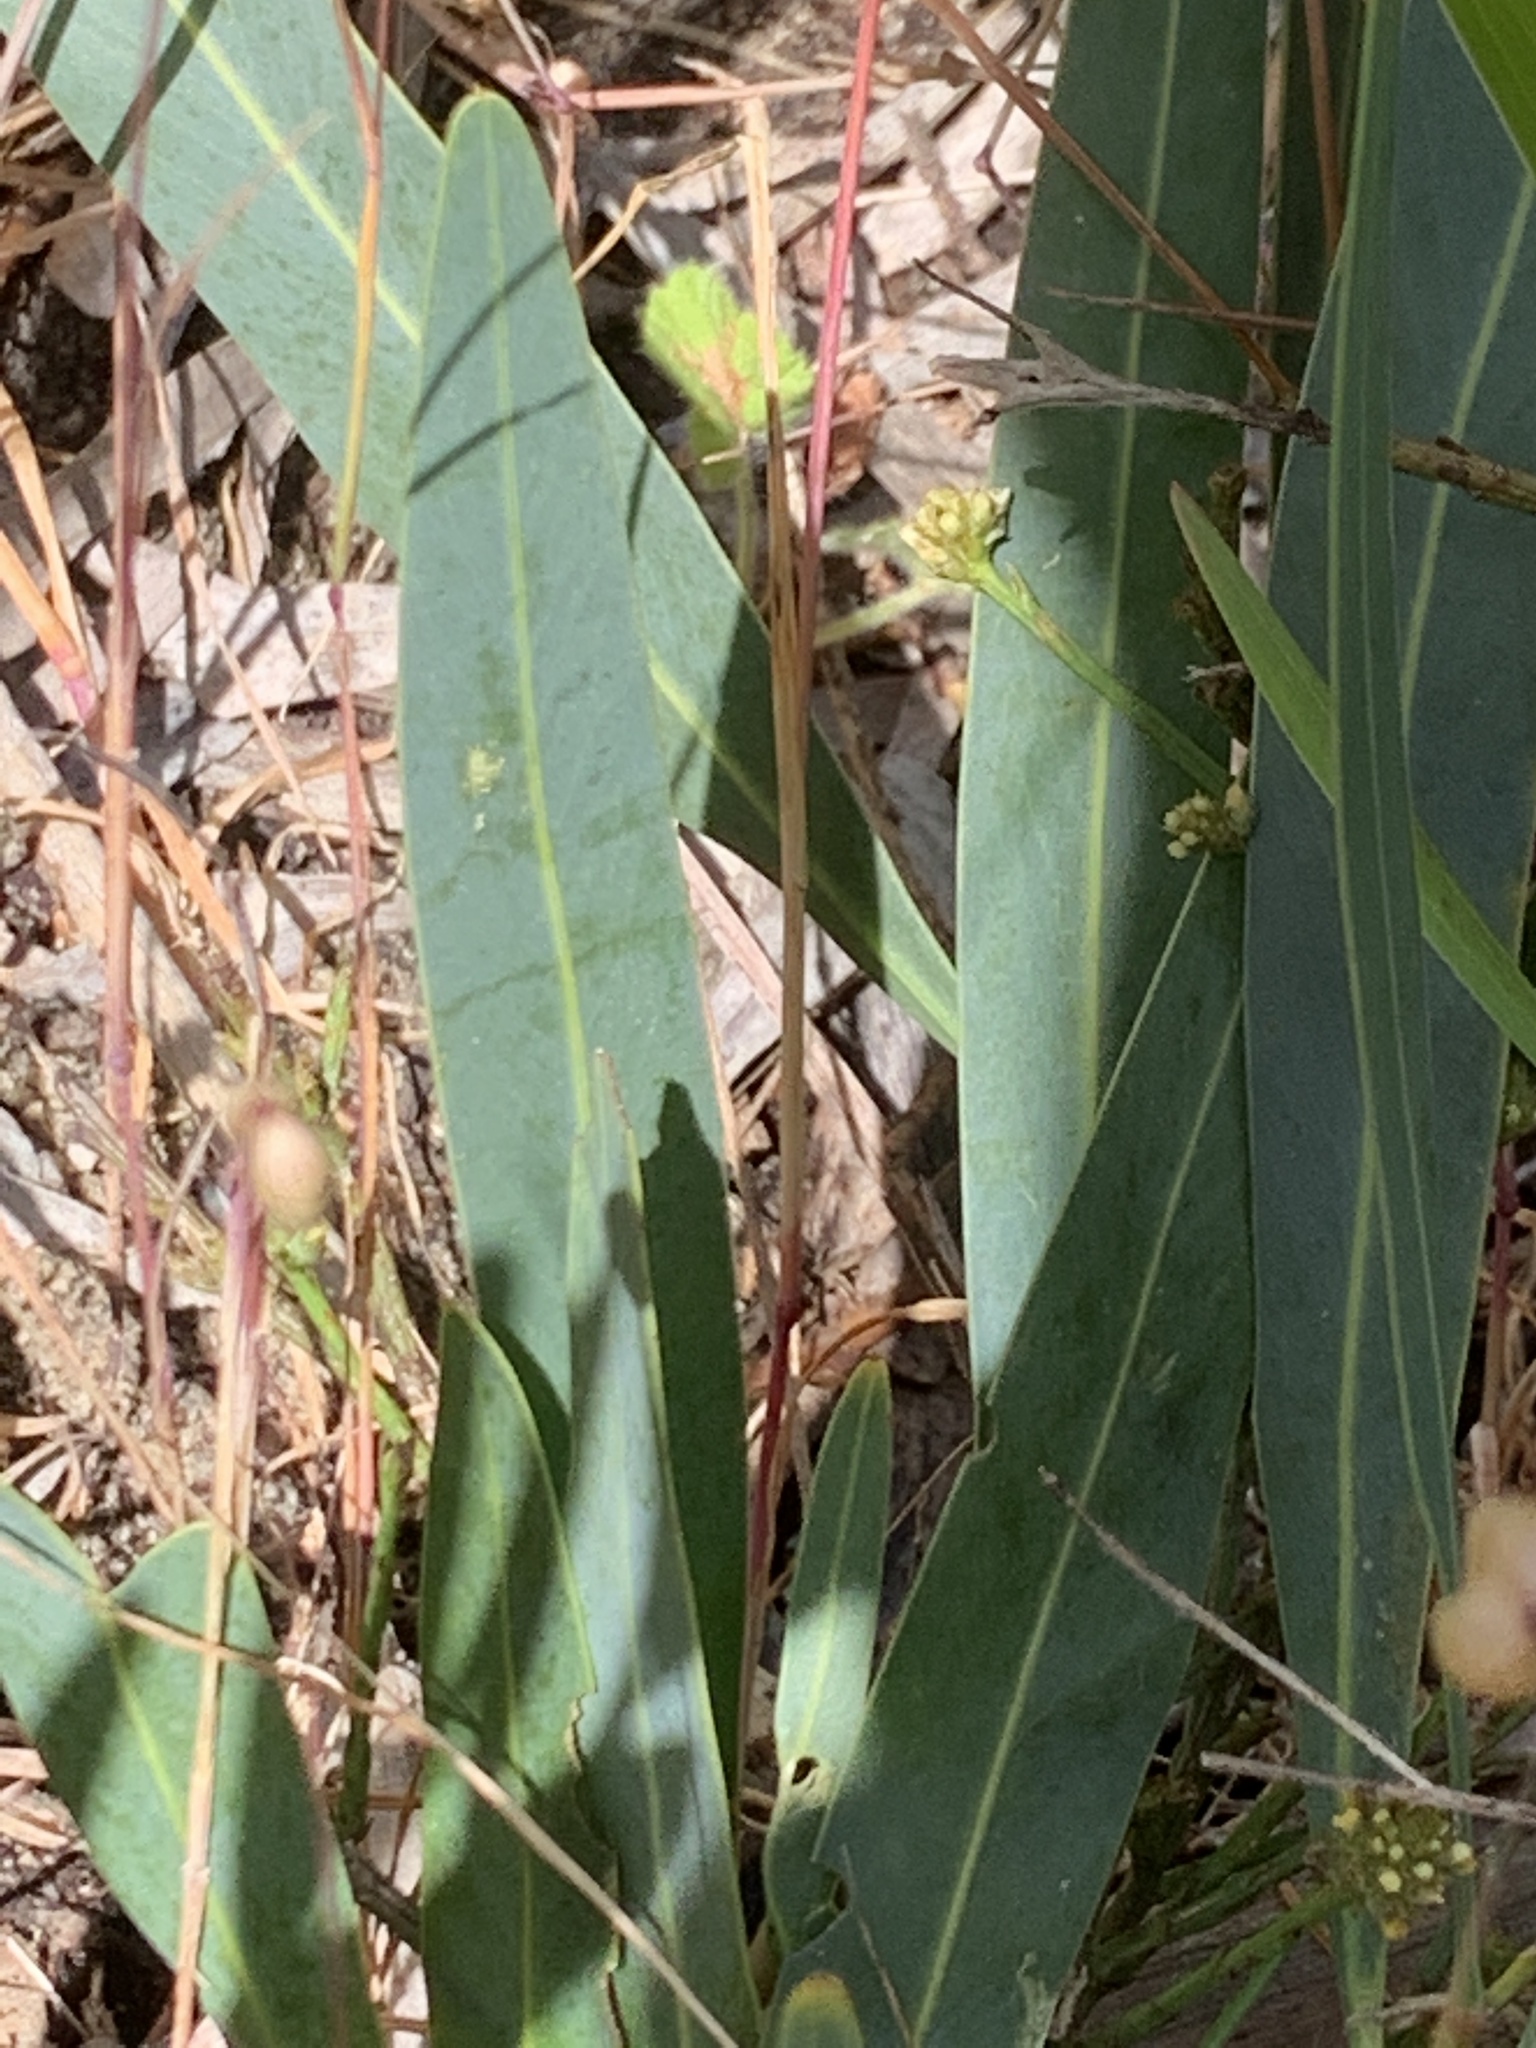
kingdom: Plantae
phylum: Tracheophyta
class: Magnoliopsida
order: Fabales
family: Fabaceae
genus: Acacia
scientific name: Acacia saligna
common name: Orange wattle
